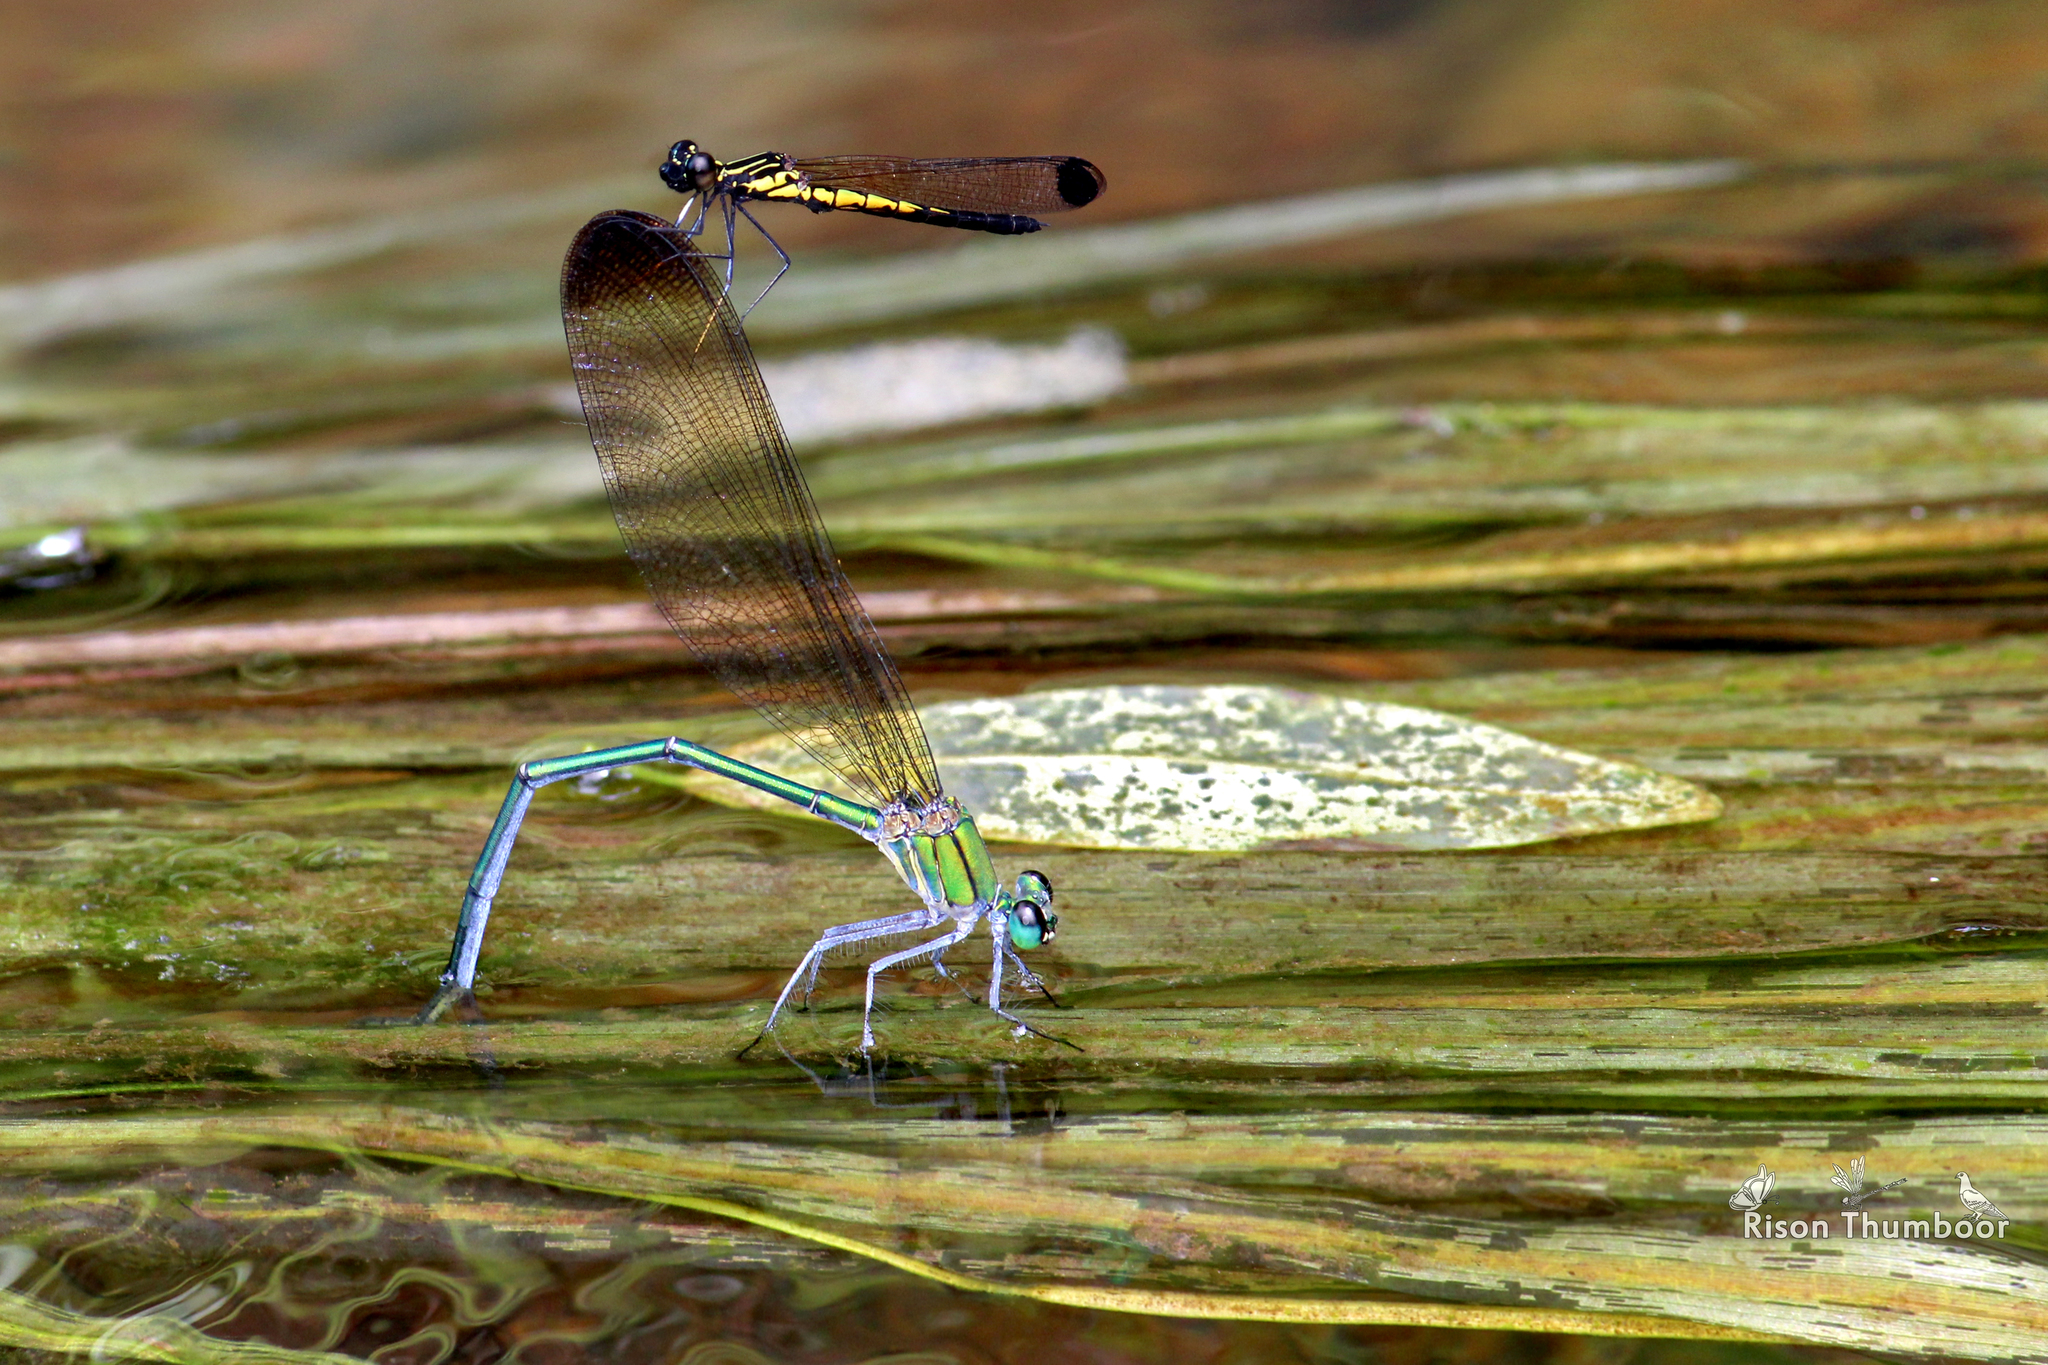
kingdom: Animalia
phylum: Arthropoda
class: Insecta
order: Odonata
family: Calopterygidae
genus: Vestalis
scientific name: Vestalis apicalis
